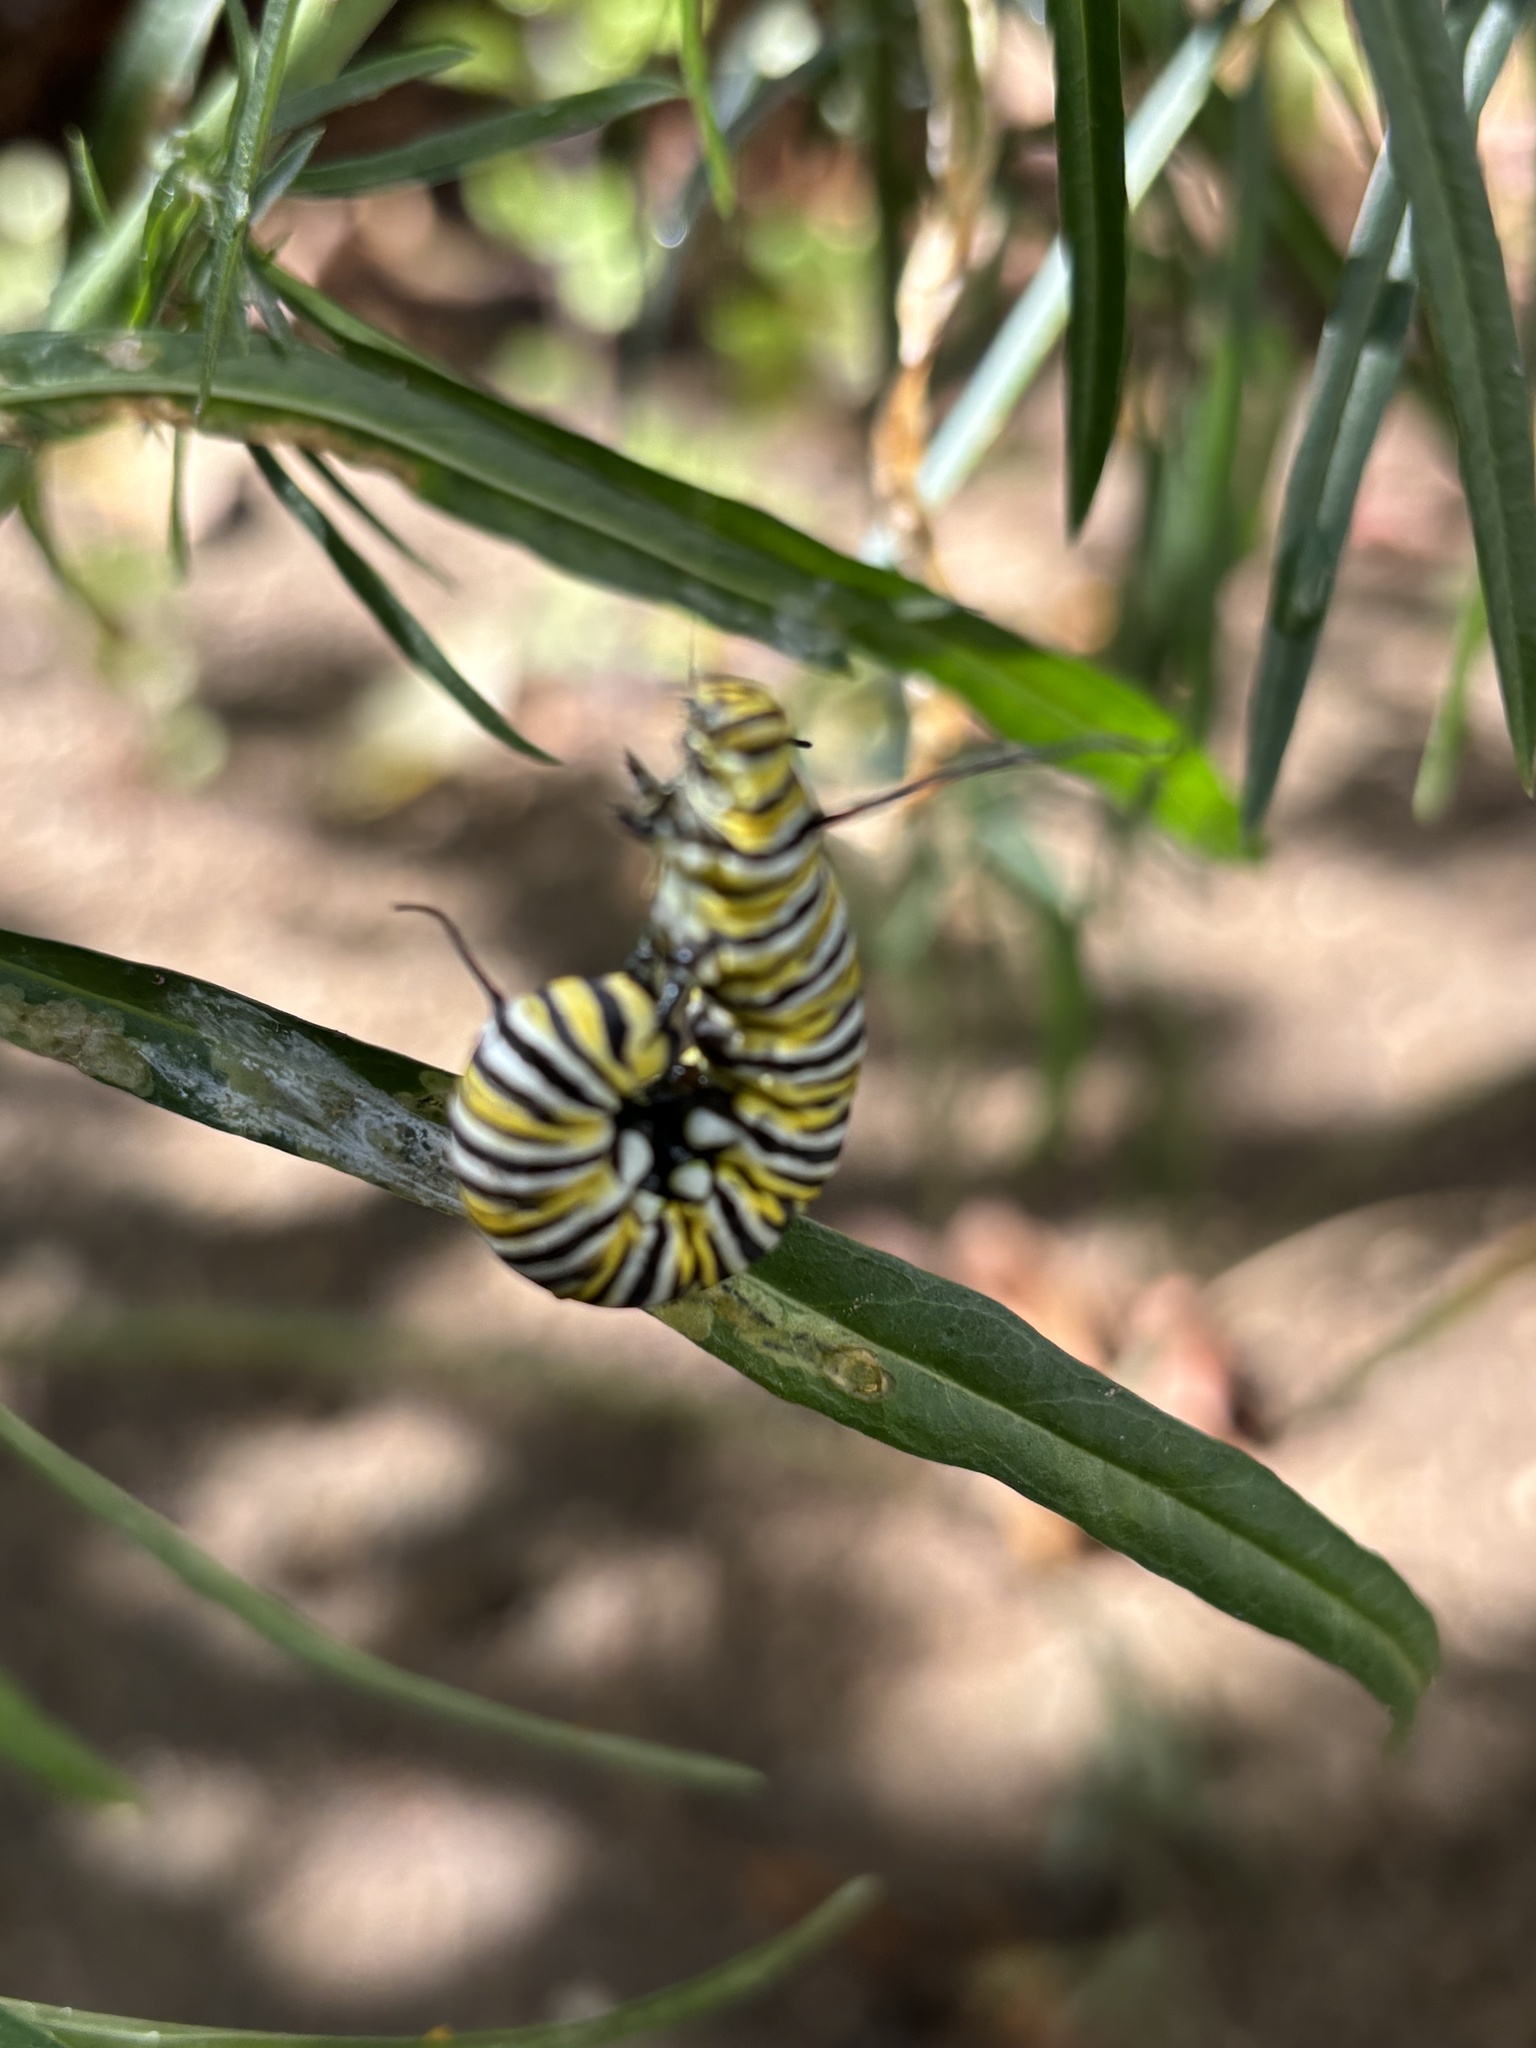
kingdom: Animalia
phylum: Arthropoda
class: Insecta
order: Lepidoptera
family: Nymphalidae
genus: Danaus
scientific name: Danaus plexippus
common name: Monarch
